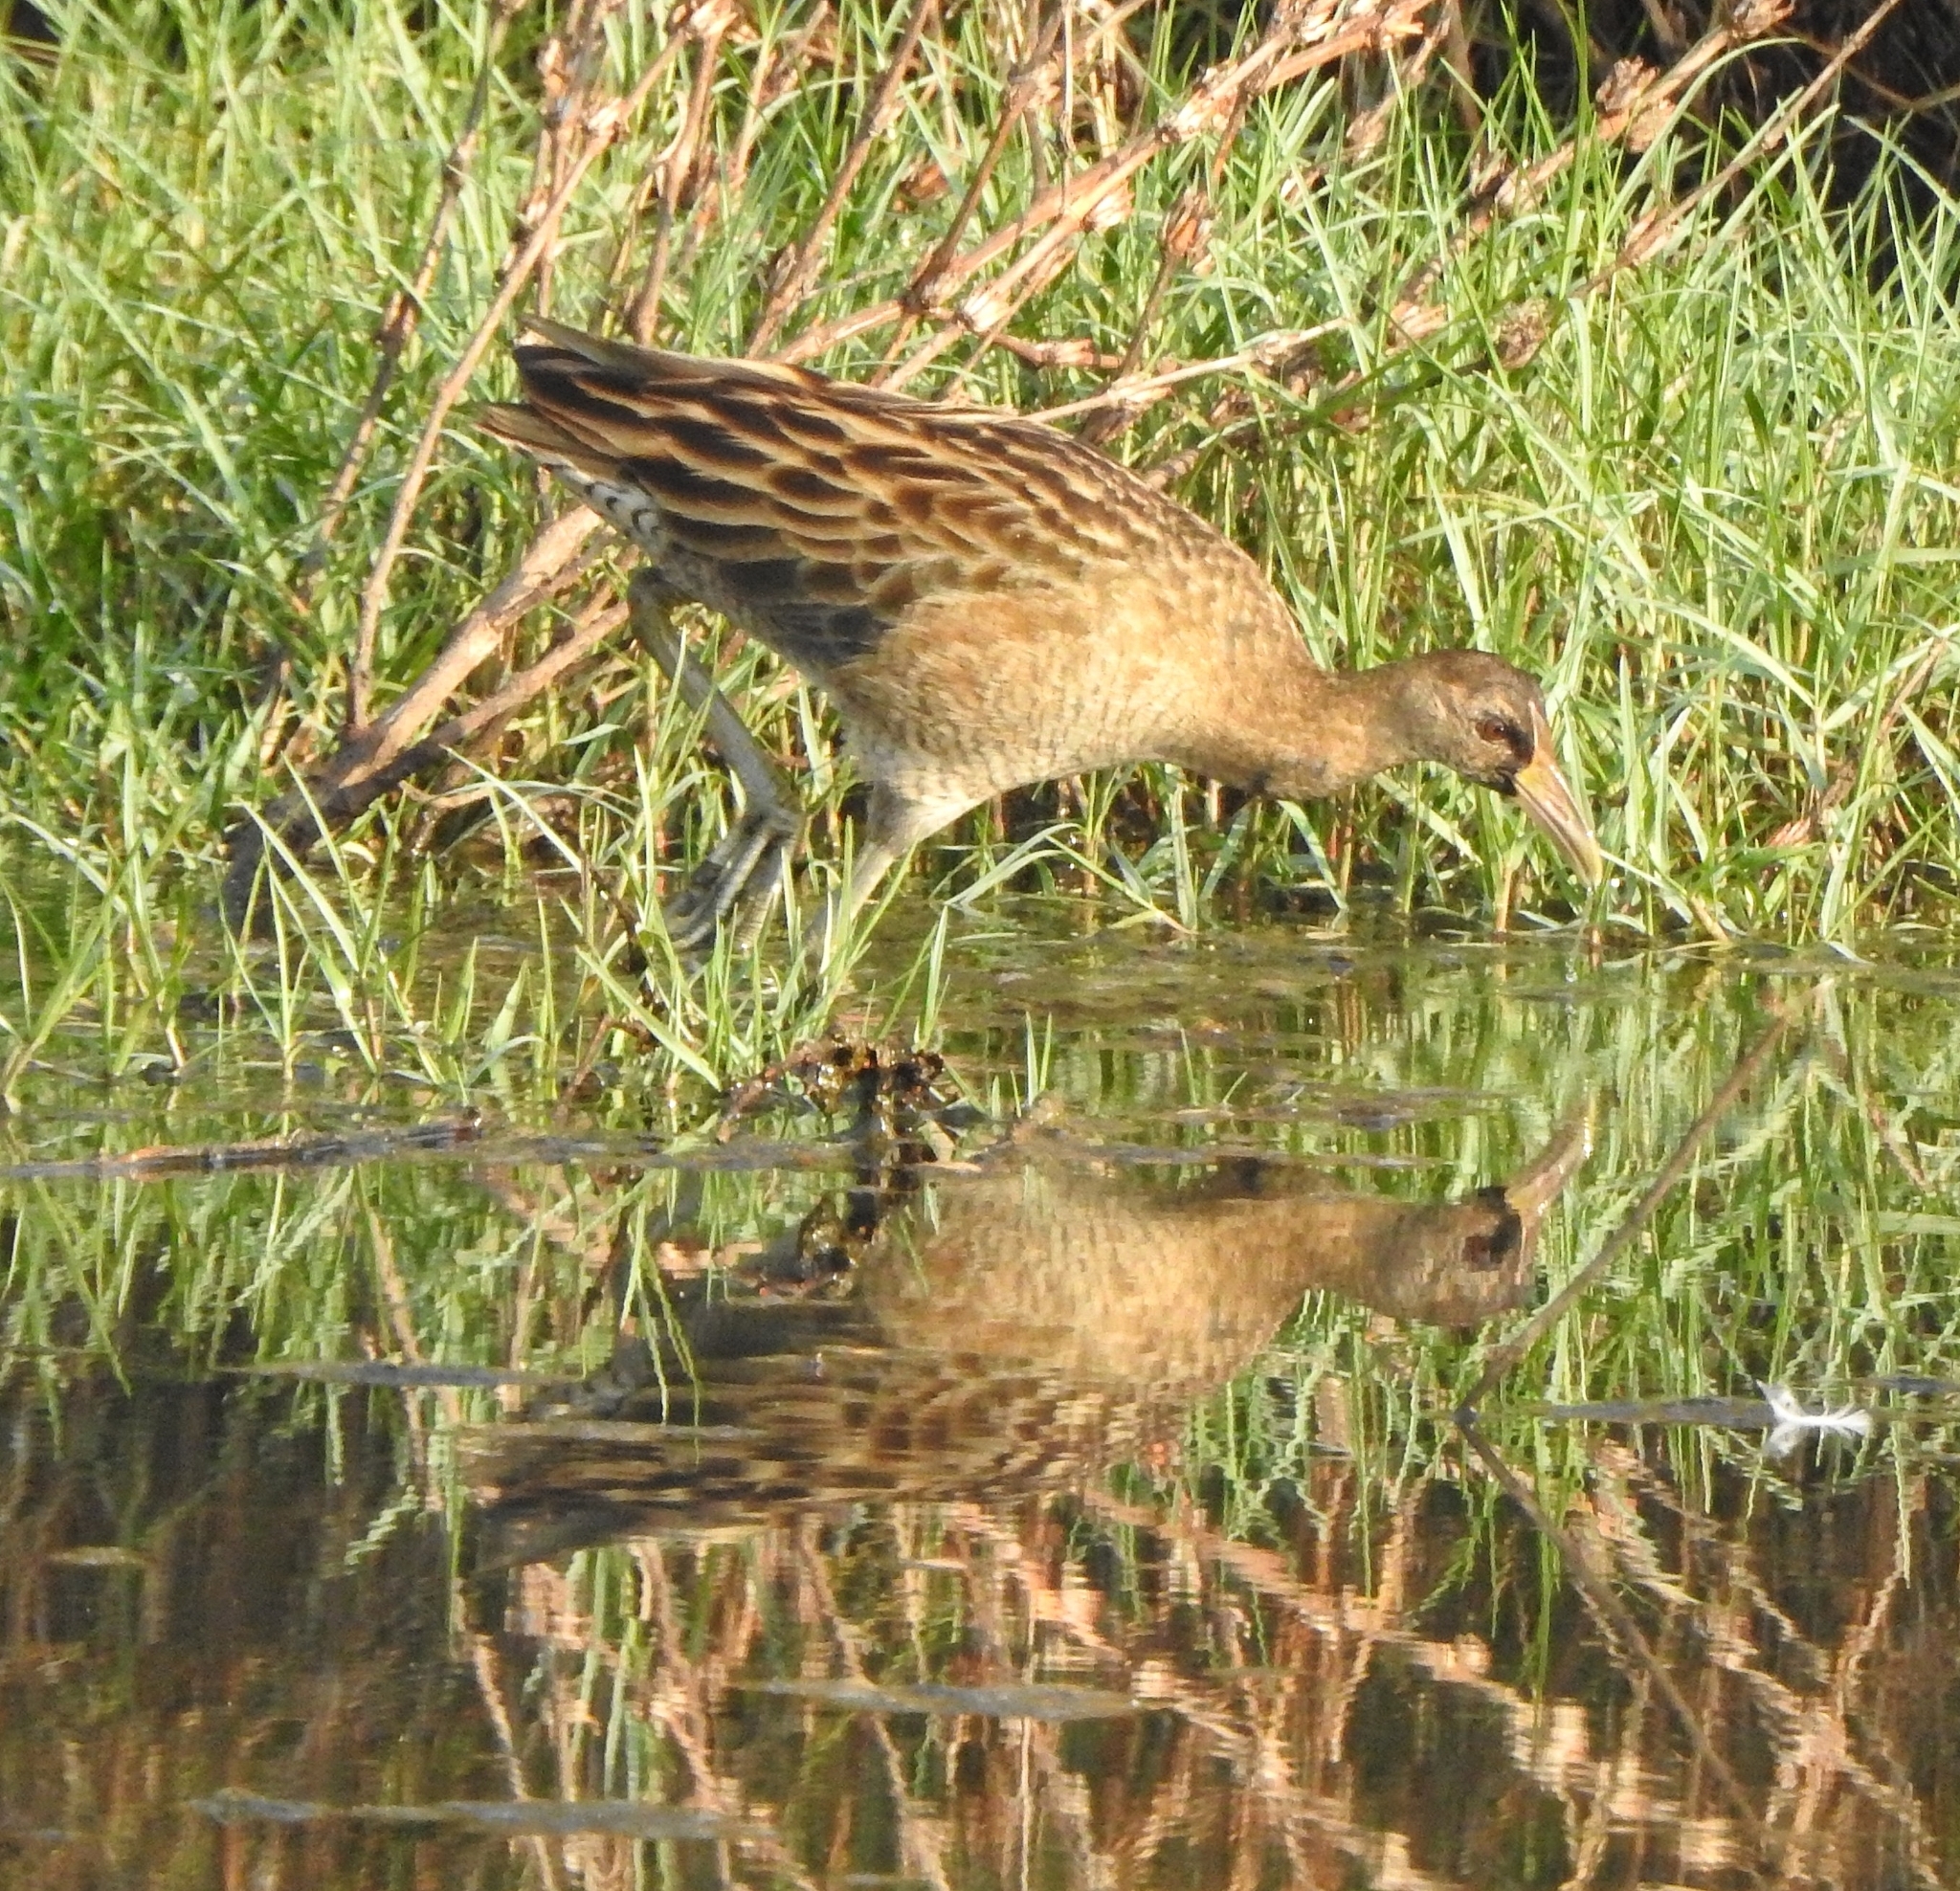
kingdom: Animalia
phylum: Chordata
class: Aves
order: Gruiformes
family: Rallidae
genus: Gallicrex
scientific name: Gallicrex cinerea
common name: Watercock
